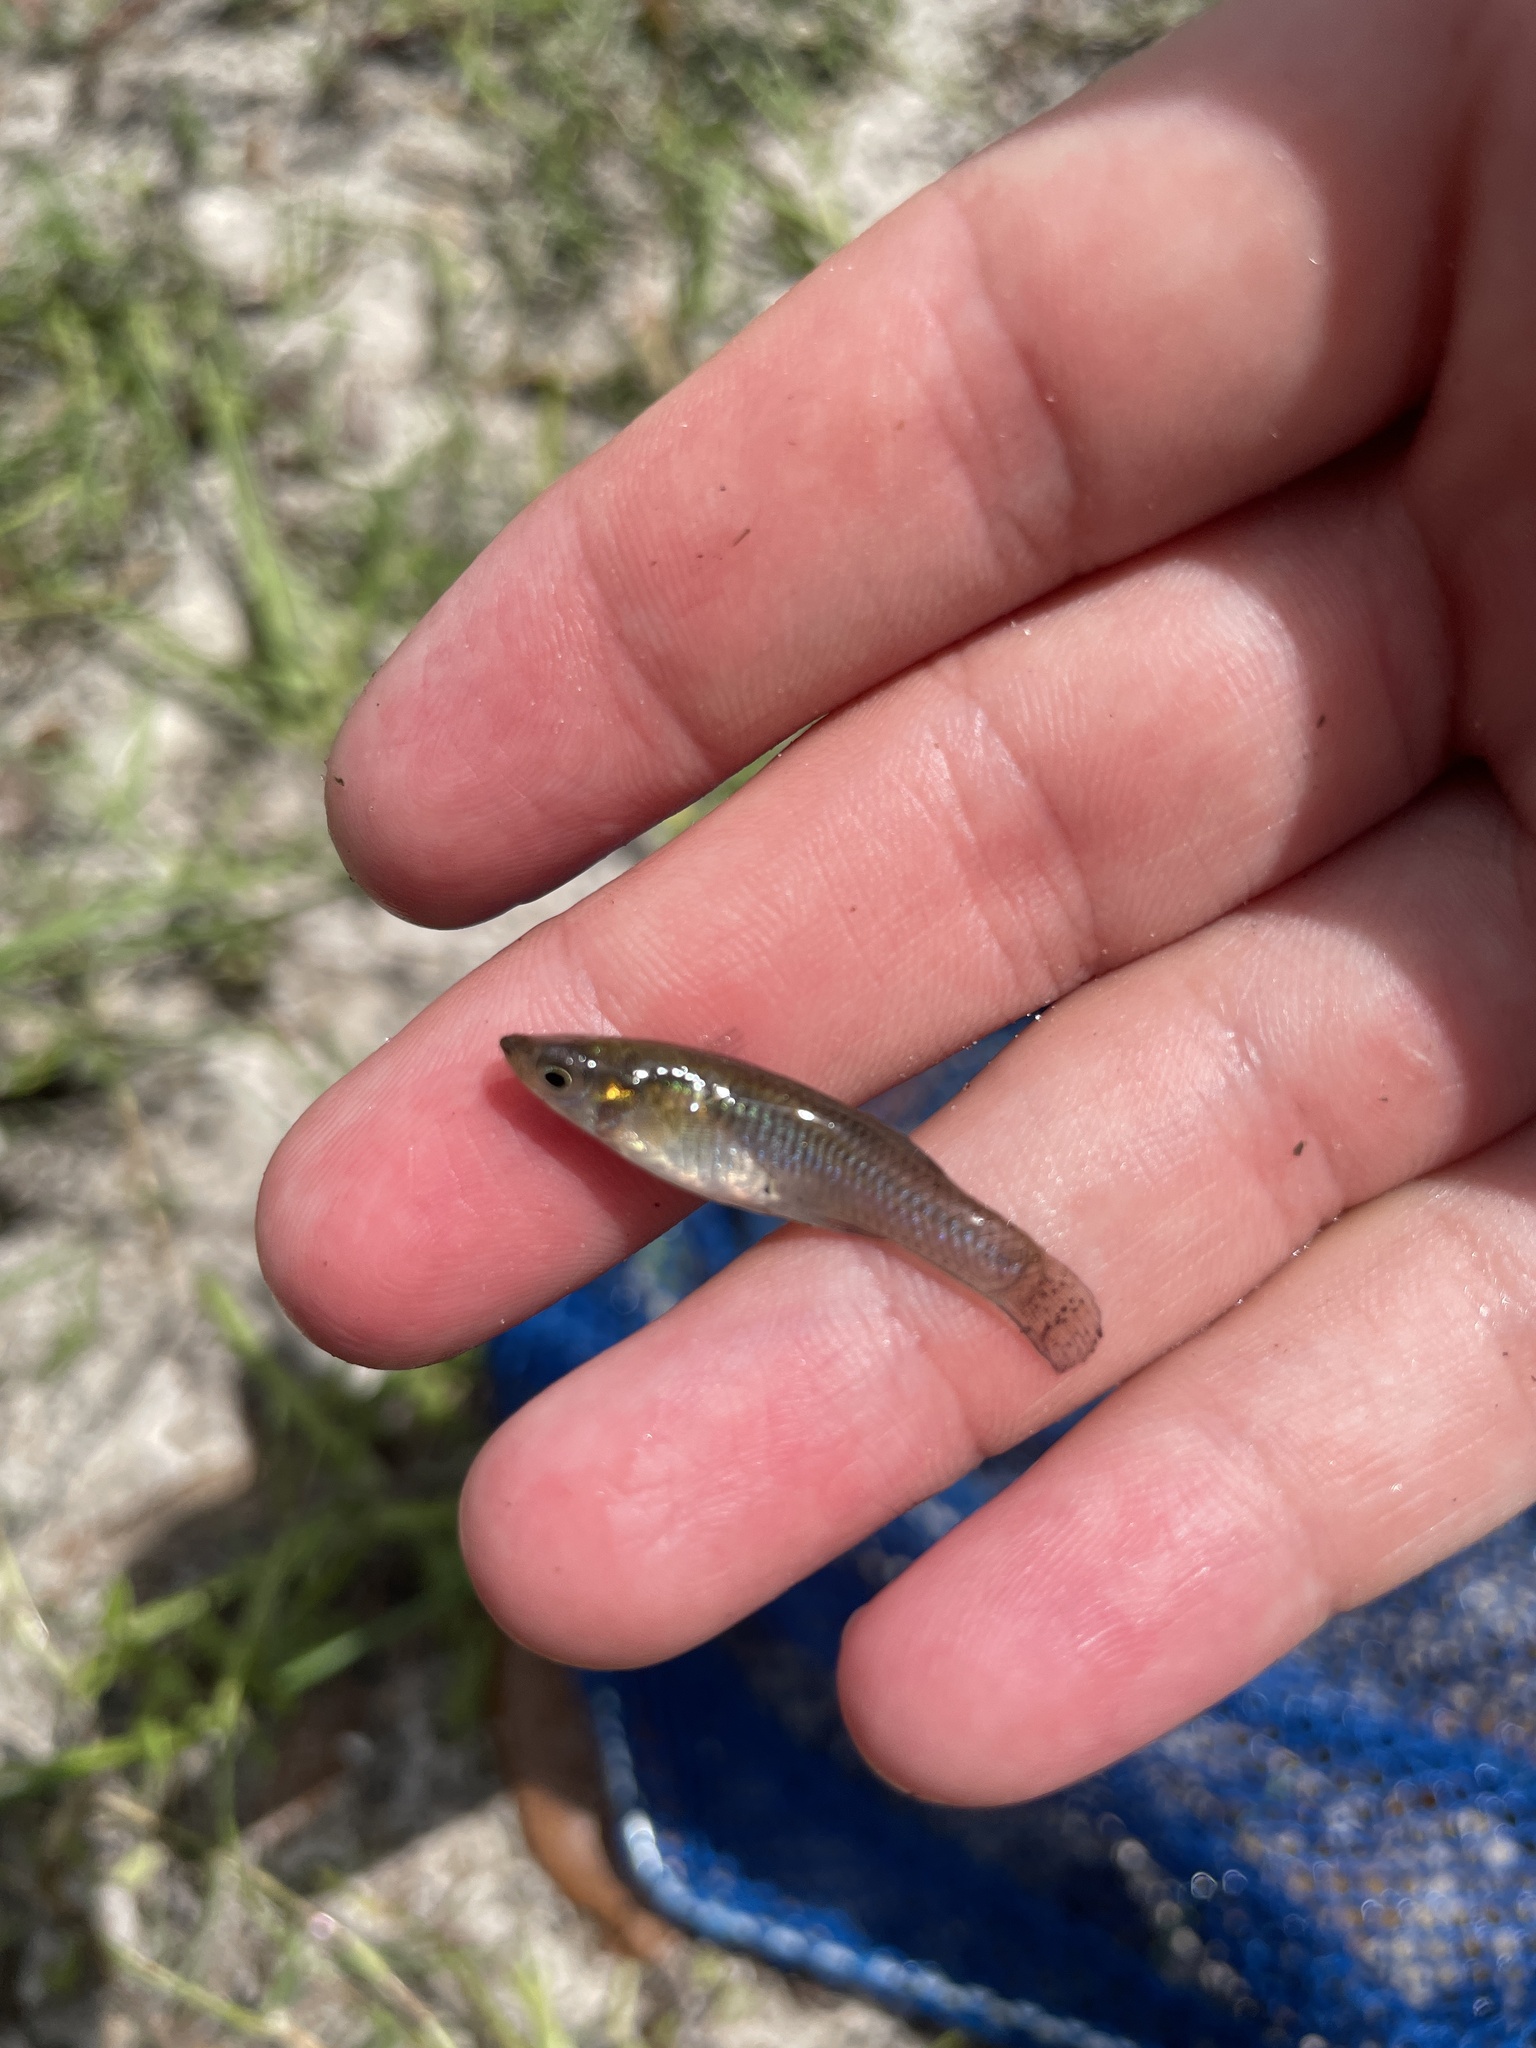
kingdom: Animalia
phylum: Chordata
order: Cyprinodontiformes
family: Poeciliidae
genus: Gambusia
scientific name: Gambusia holbrooki
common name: Eastern mosquitofish
